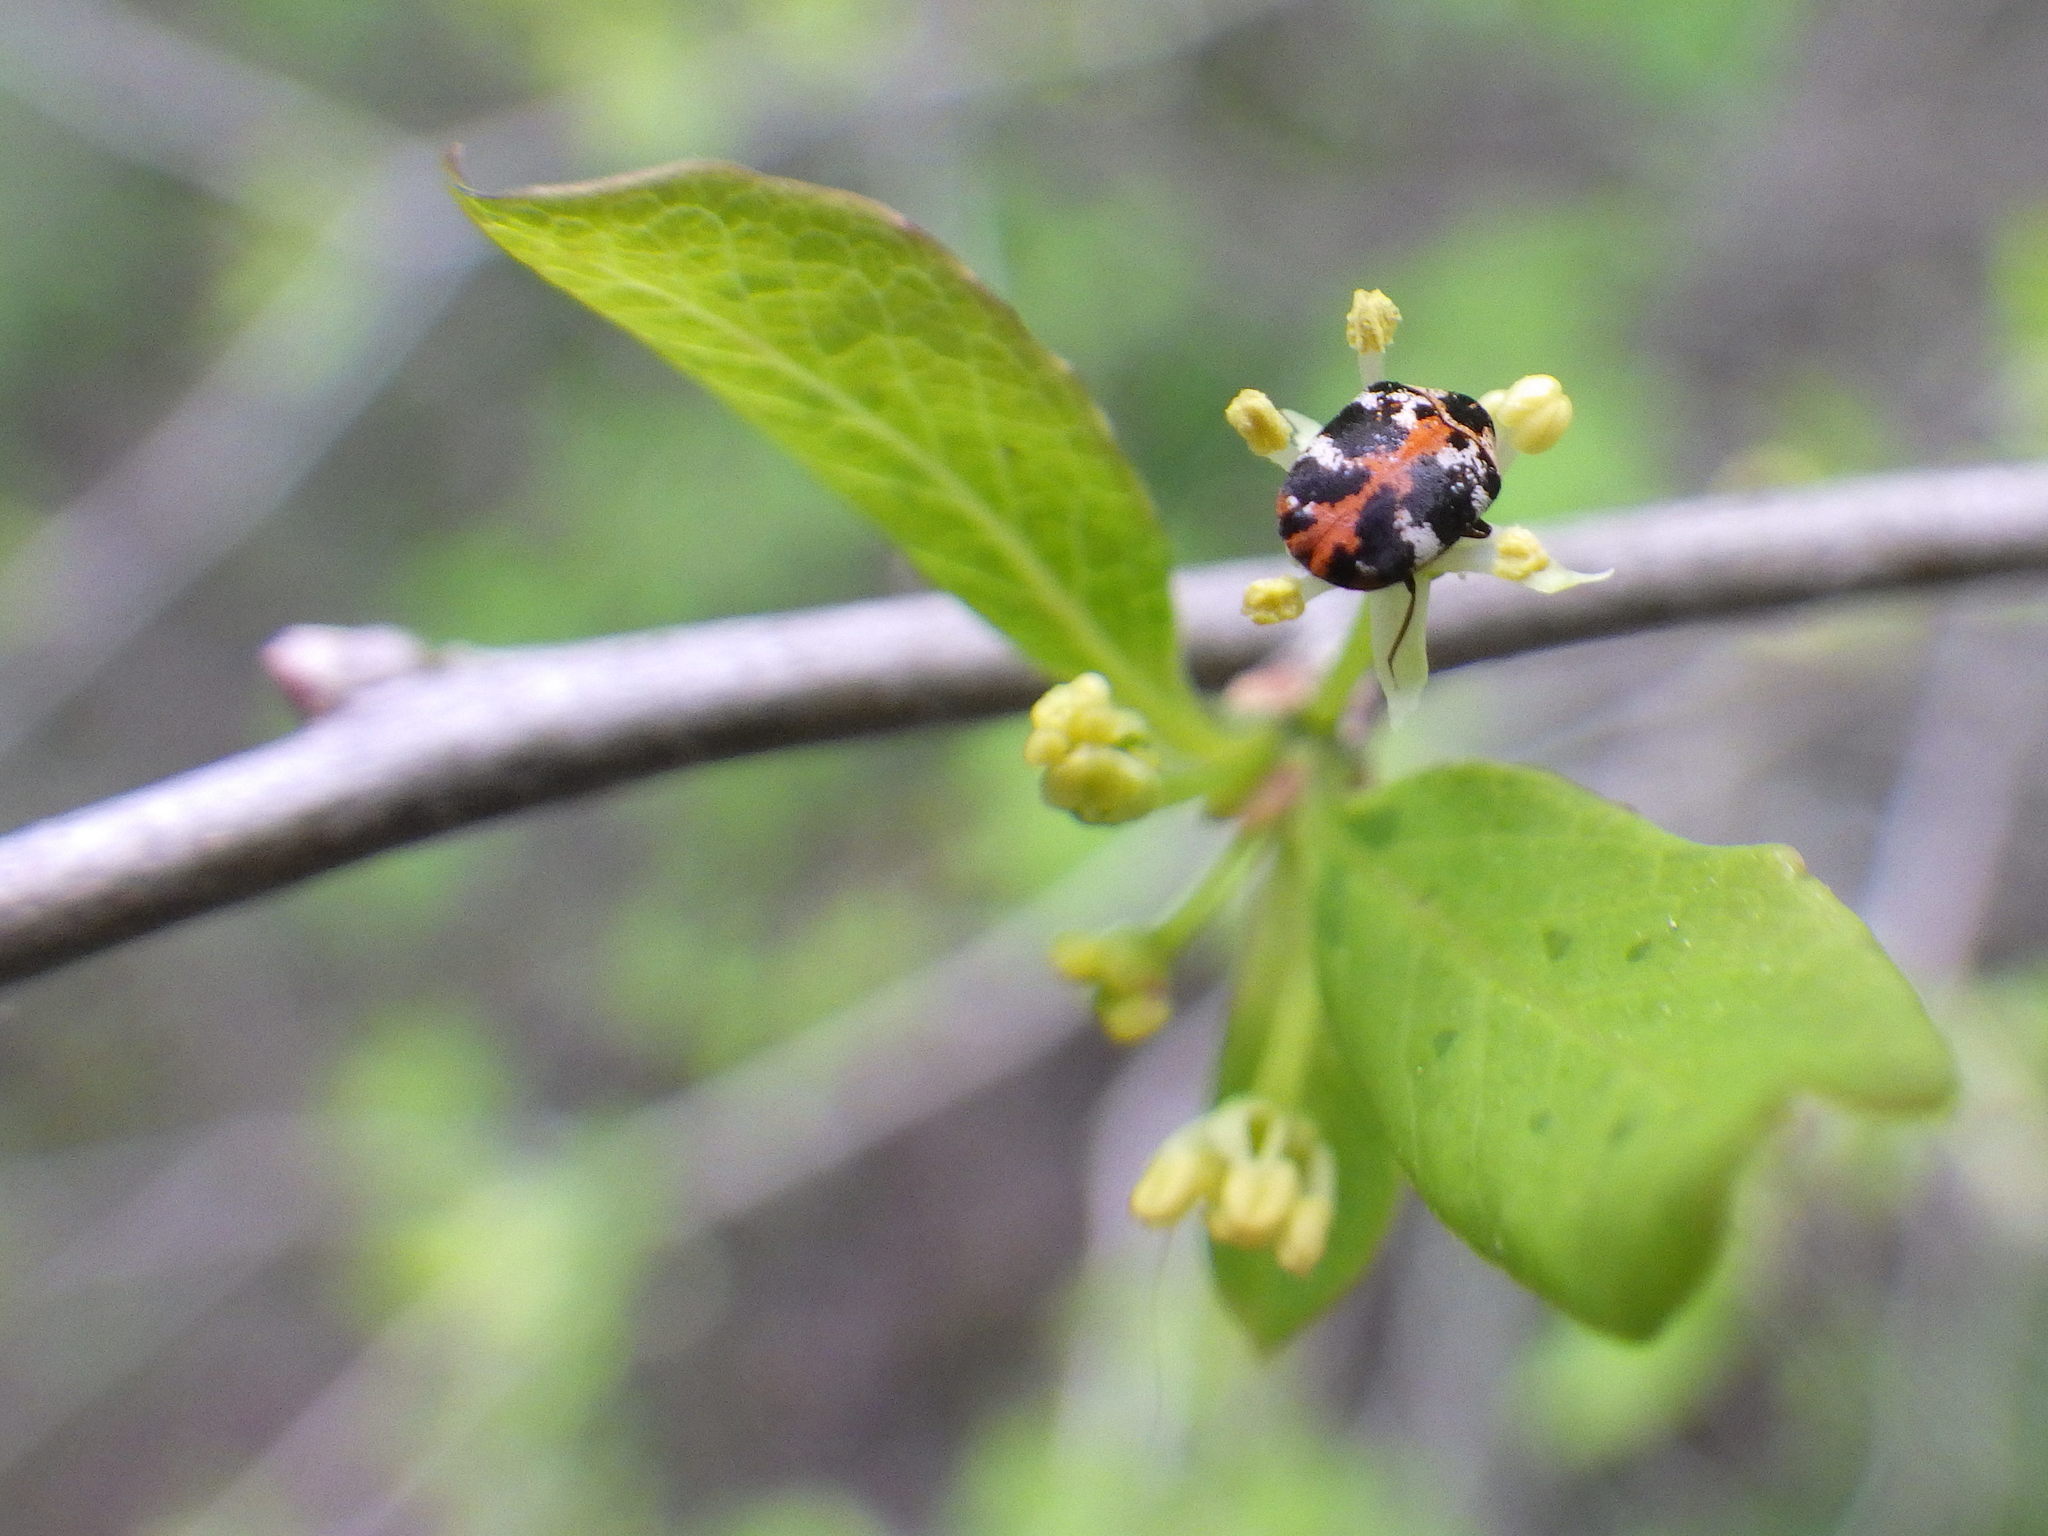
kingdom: Animalia
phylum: Arthropoda
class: Insecta
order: Coleoptera
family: Dermestidae
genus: Anthrenus
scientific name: Anthrenus scrophulariae
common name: Buffalo carpet beetle
